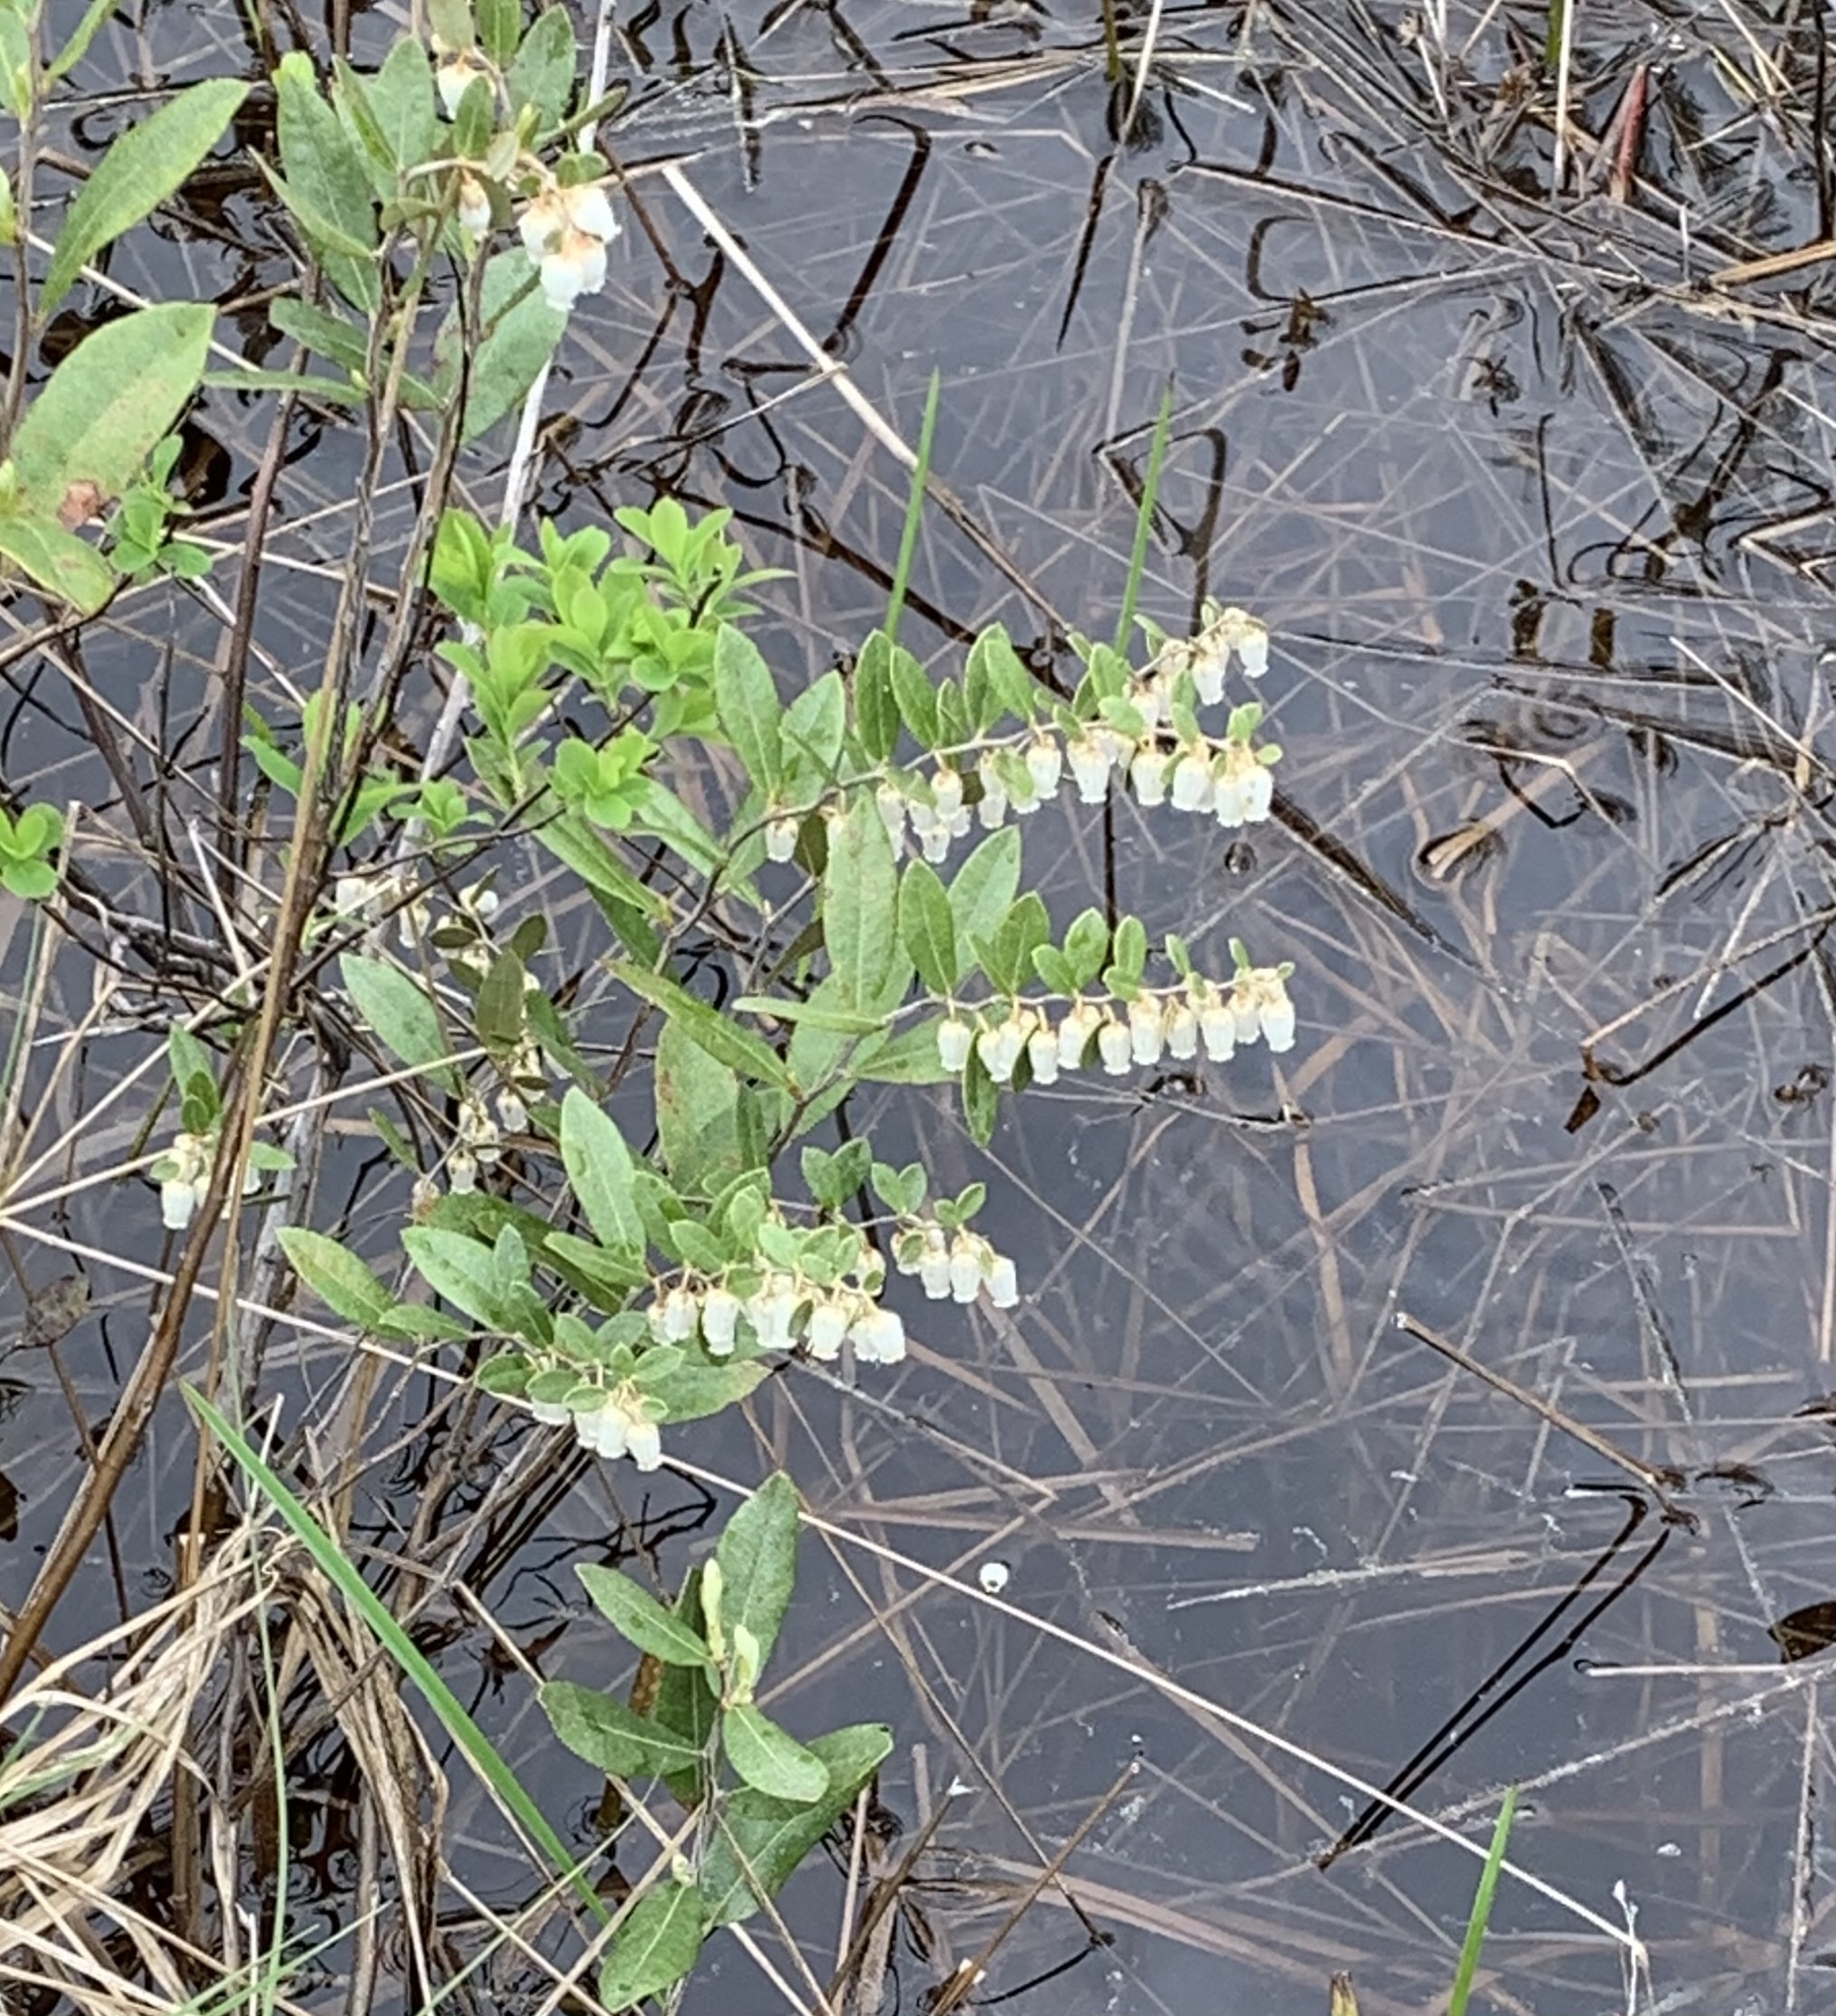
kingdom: Plantae
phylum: Tracheophyta
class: Magnoliopsida
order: Ericales
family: Ericaceae
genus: Chamaedaphne
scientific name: Chamaedaphne calyculata
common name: Leatherleaf
